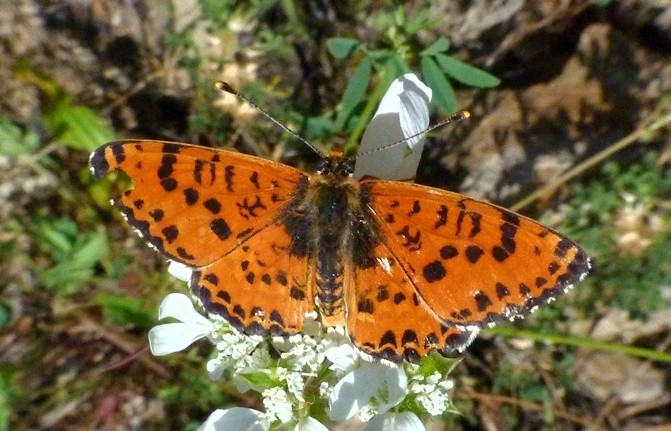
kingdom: Animalia
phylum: Arthropoda
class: Insecta
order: Lepidoptera
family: Nymphalidae
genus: Melitaea
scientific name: Melitaea didyma
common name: Spotted fritillary
